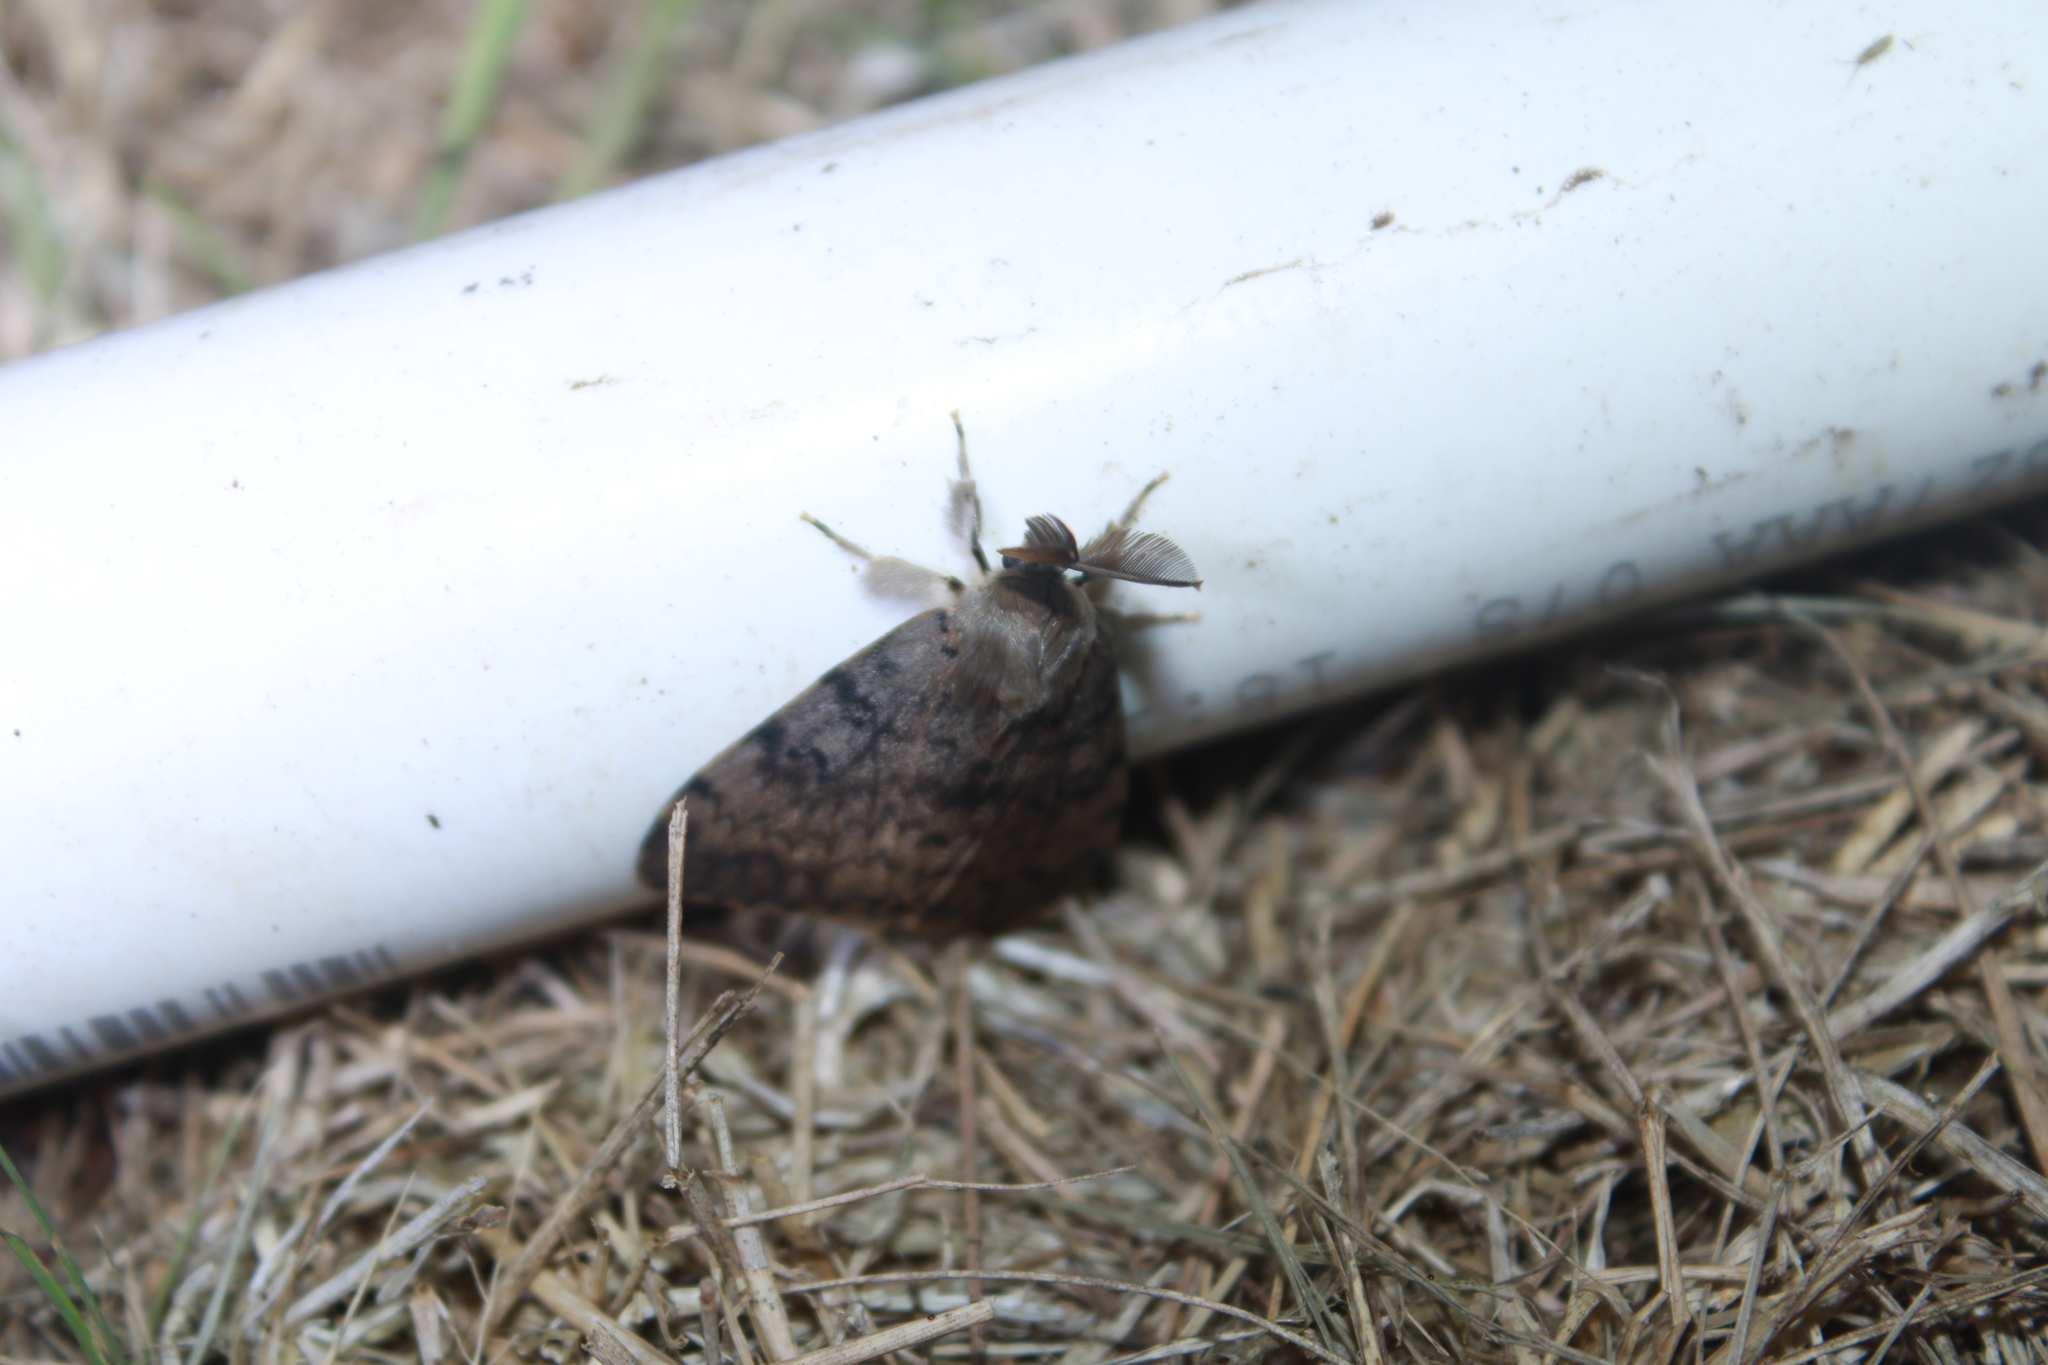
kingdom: Animalia
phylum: Arthropoda
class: Insecta
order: Lepidoptera
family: Erebidae
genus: Lymantria
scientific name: Lymantria dispar
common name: Gypsy moth
